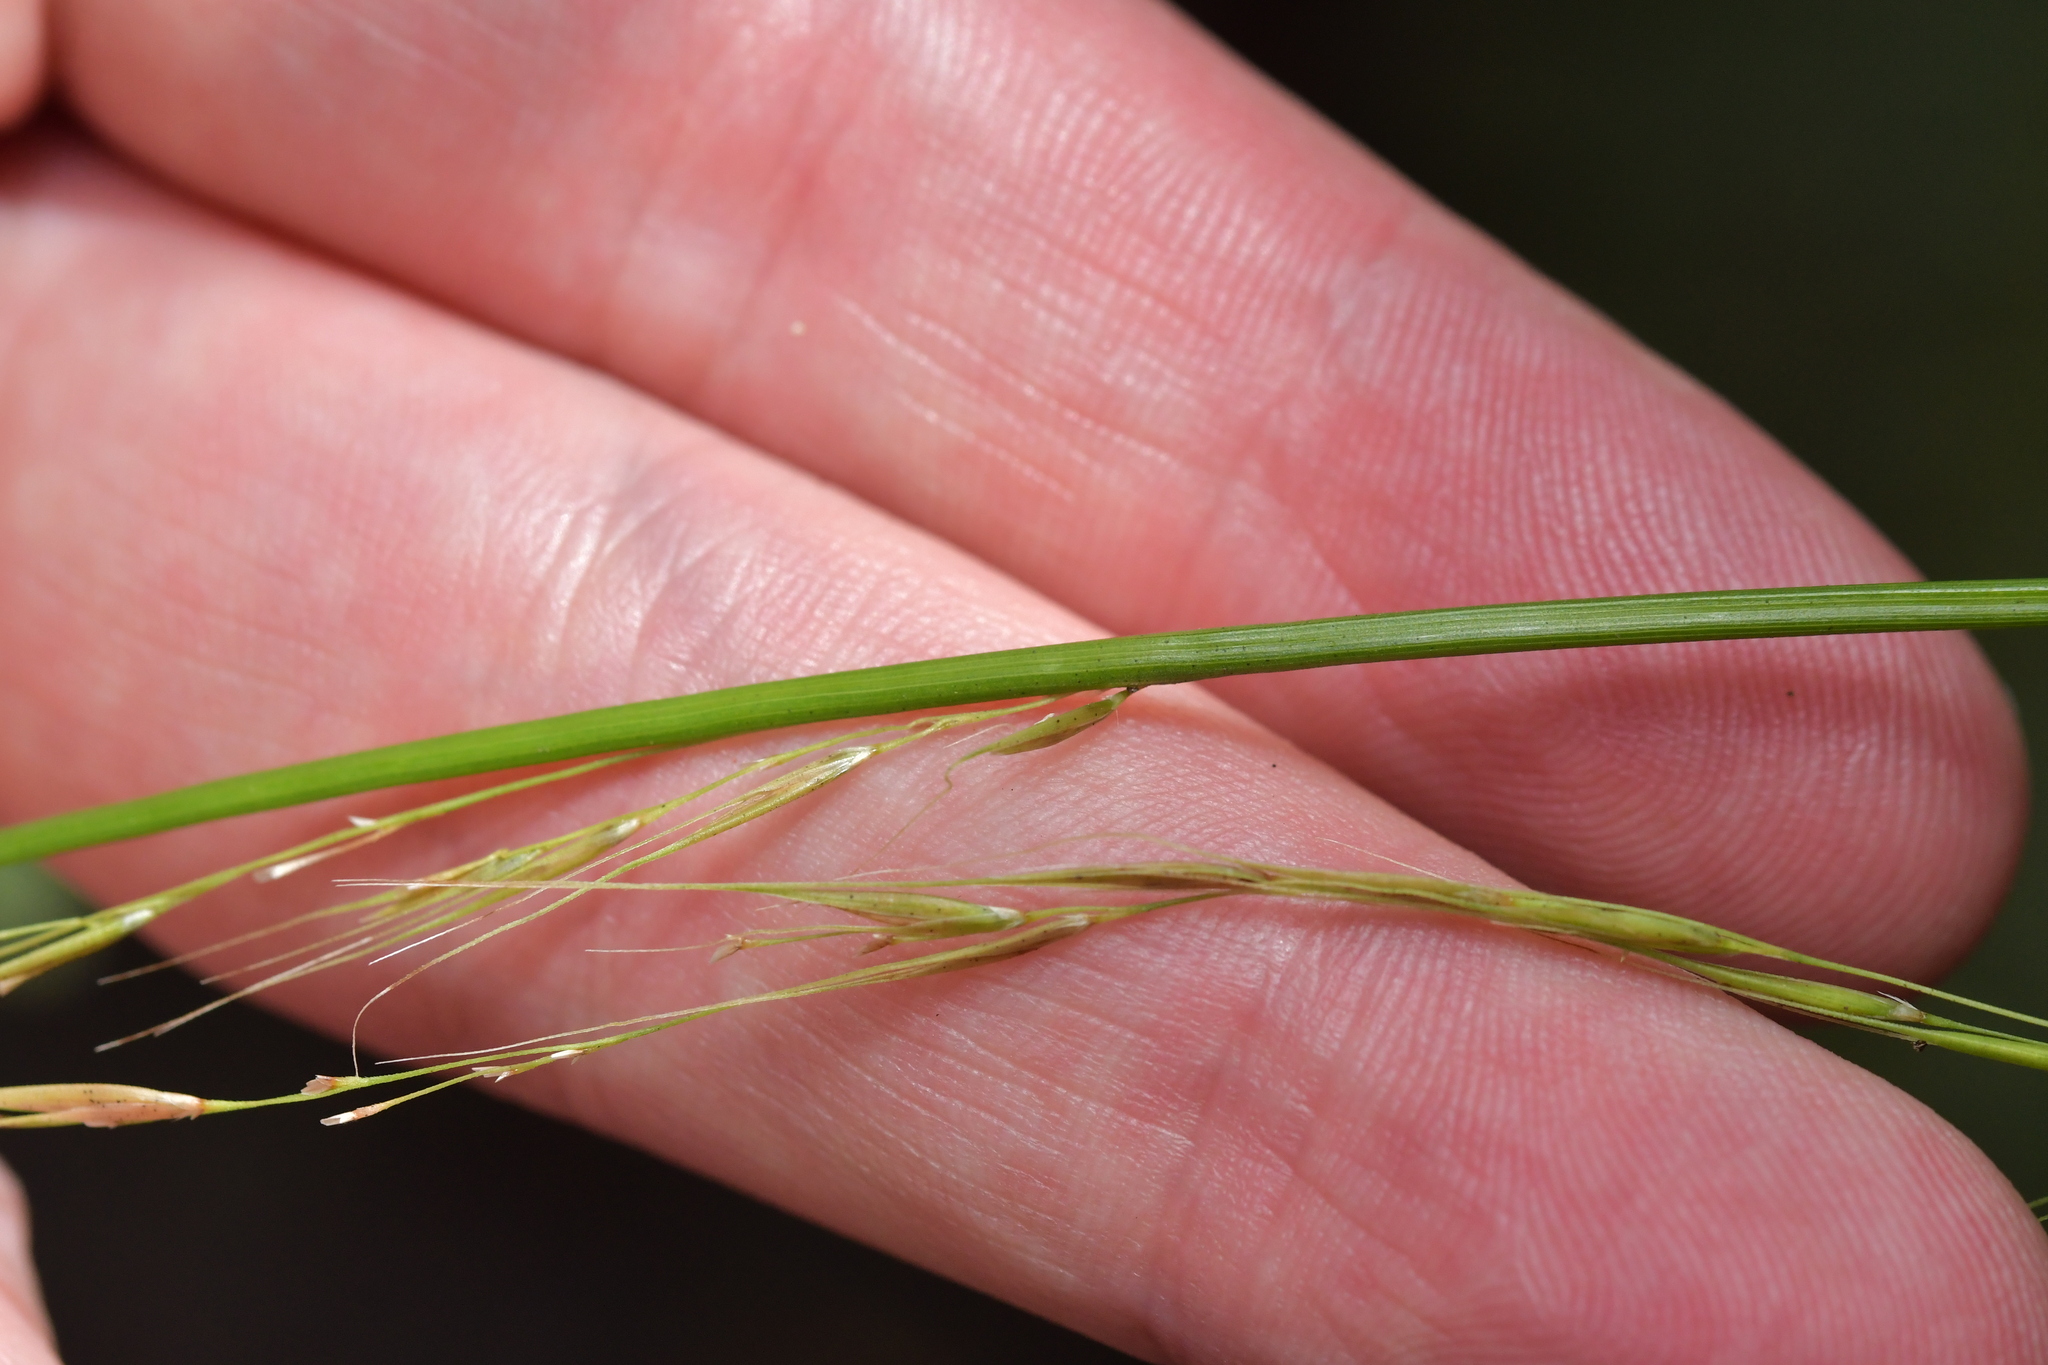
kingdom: Plantae
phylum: Tracheophyta
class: Liliopsida
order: Poales
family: Poaceae
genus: Ehrharta
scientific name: Ehrharta diplax
